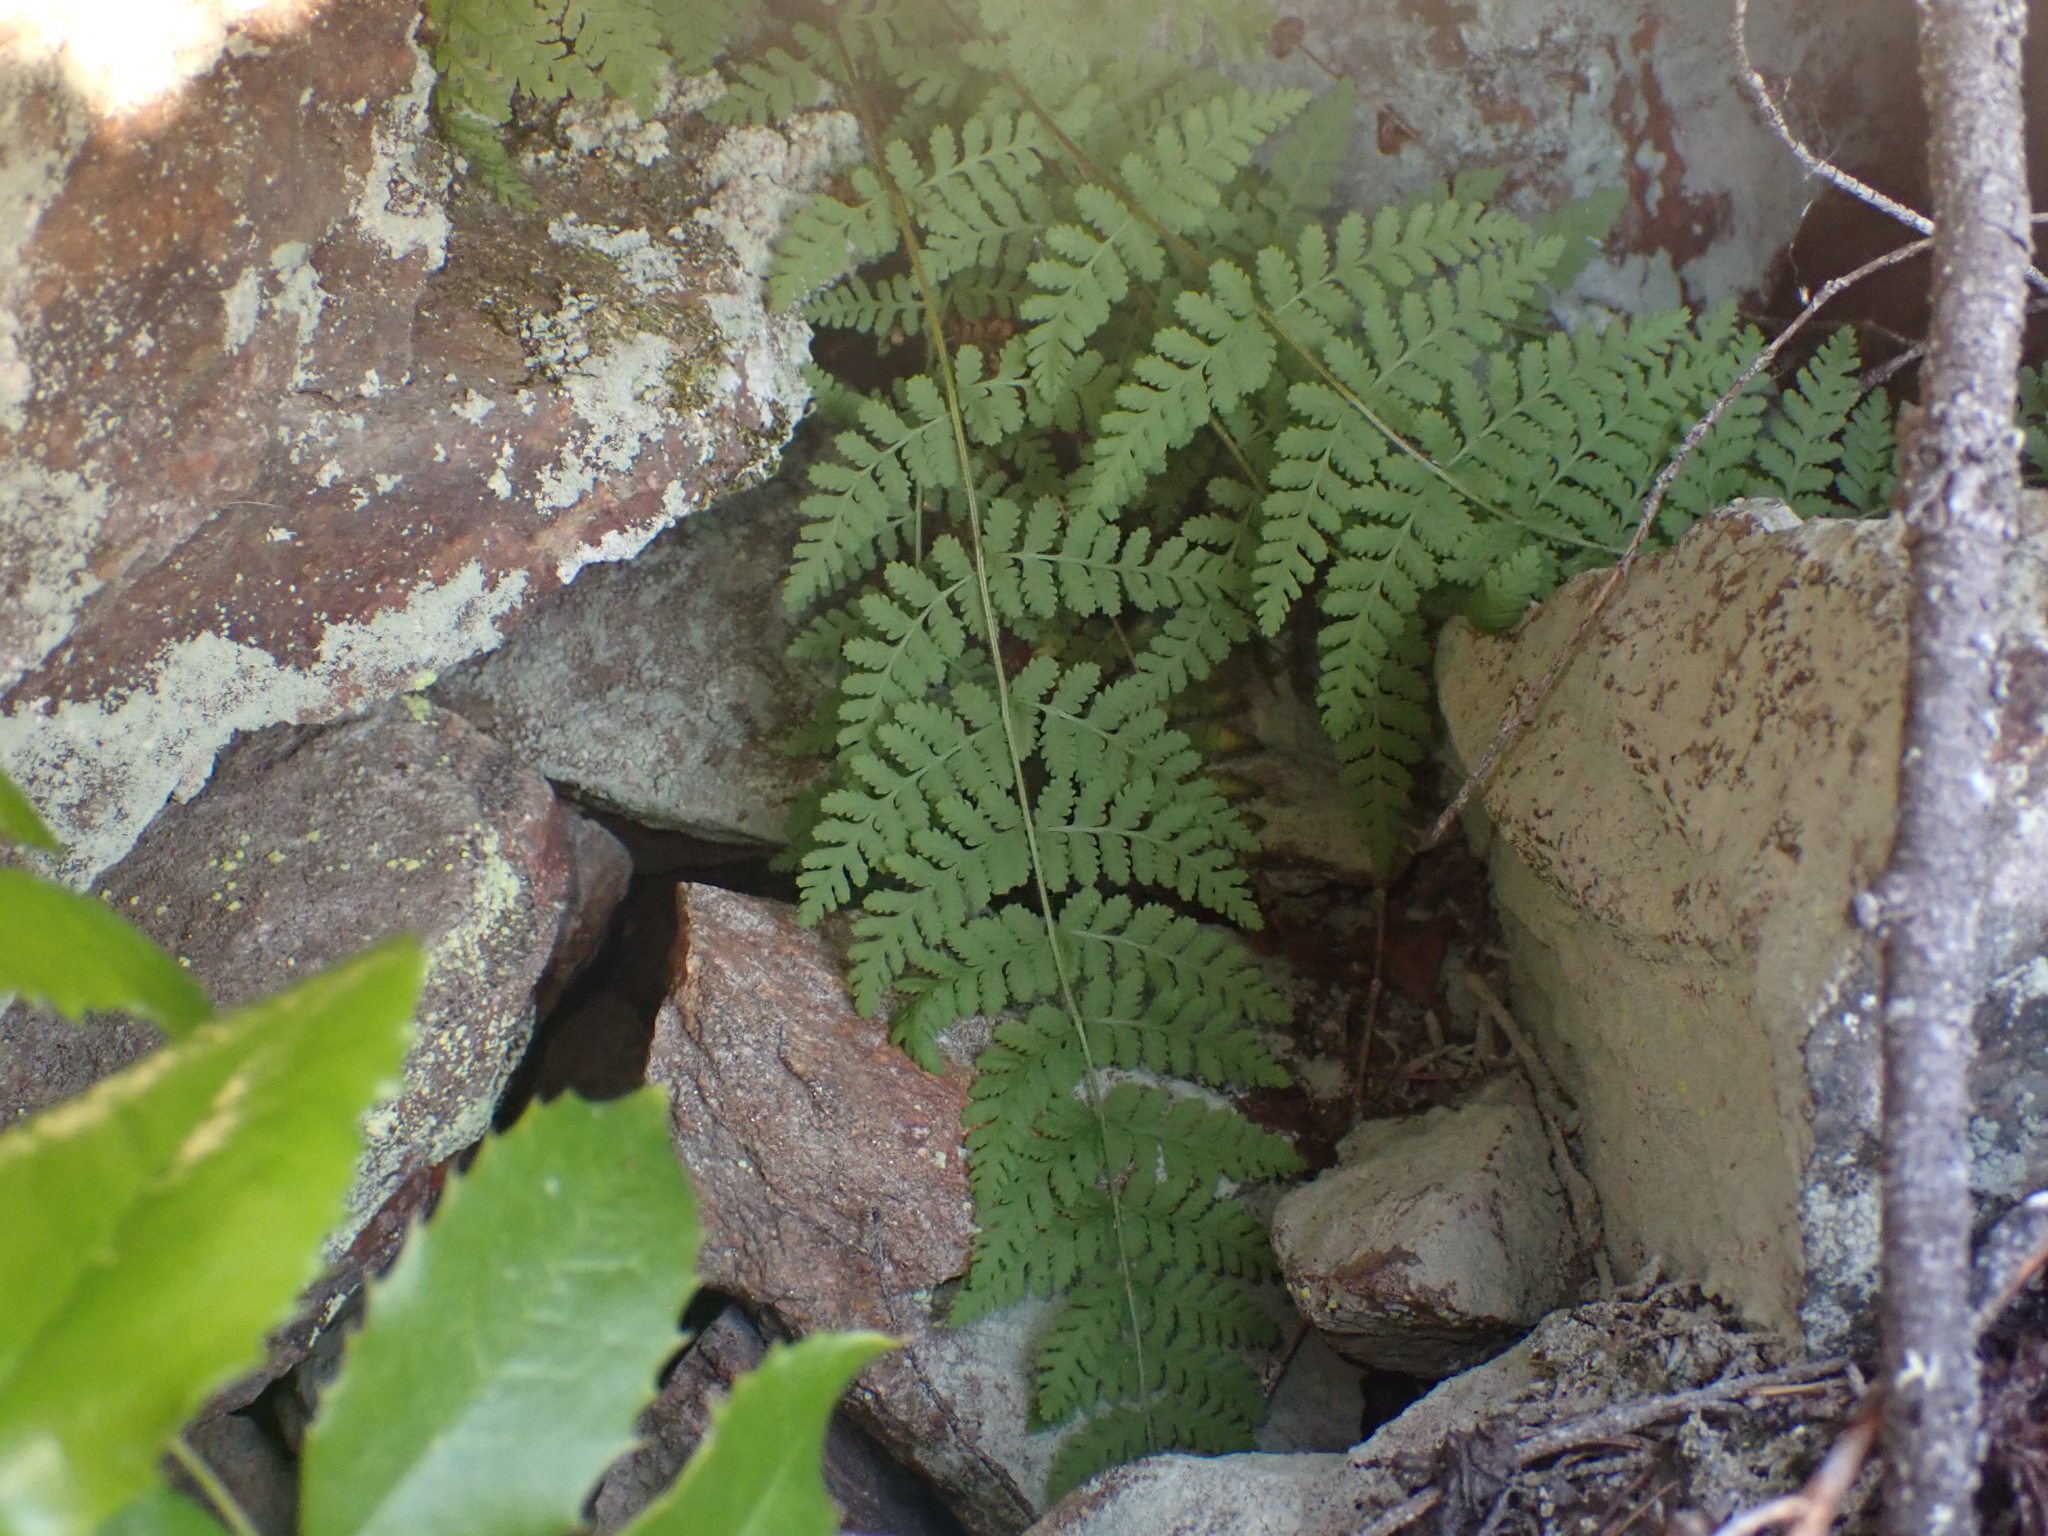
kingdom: Plantae
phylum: Tracheophyta
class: Polypodiopsida
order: Polypodiales
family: Woodsiaceae
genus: Physematium
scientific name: Physematium scopulinum
